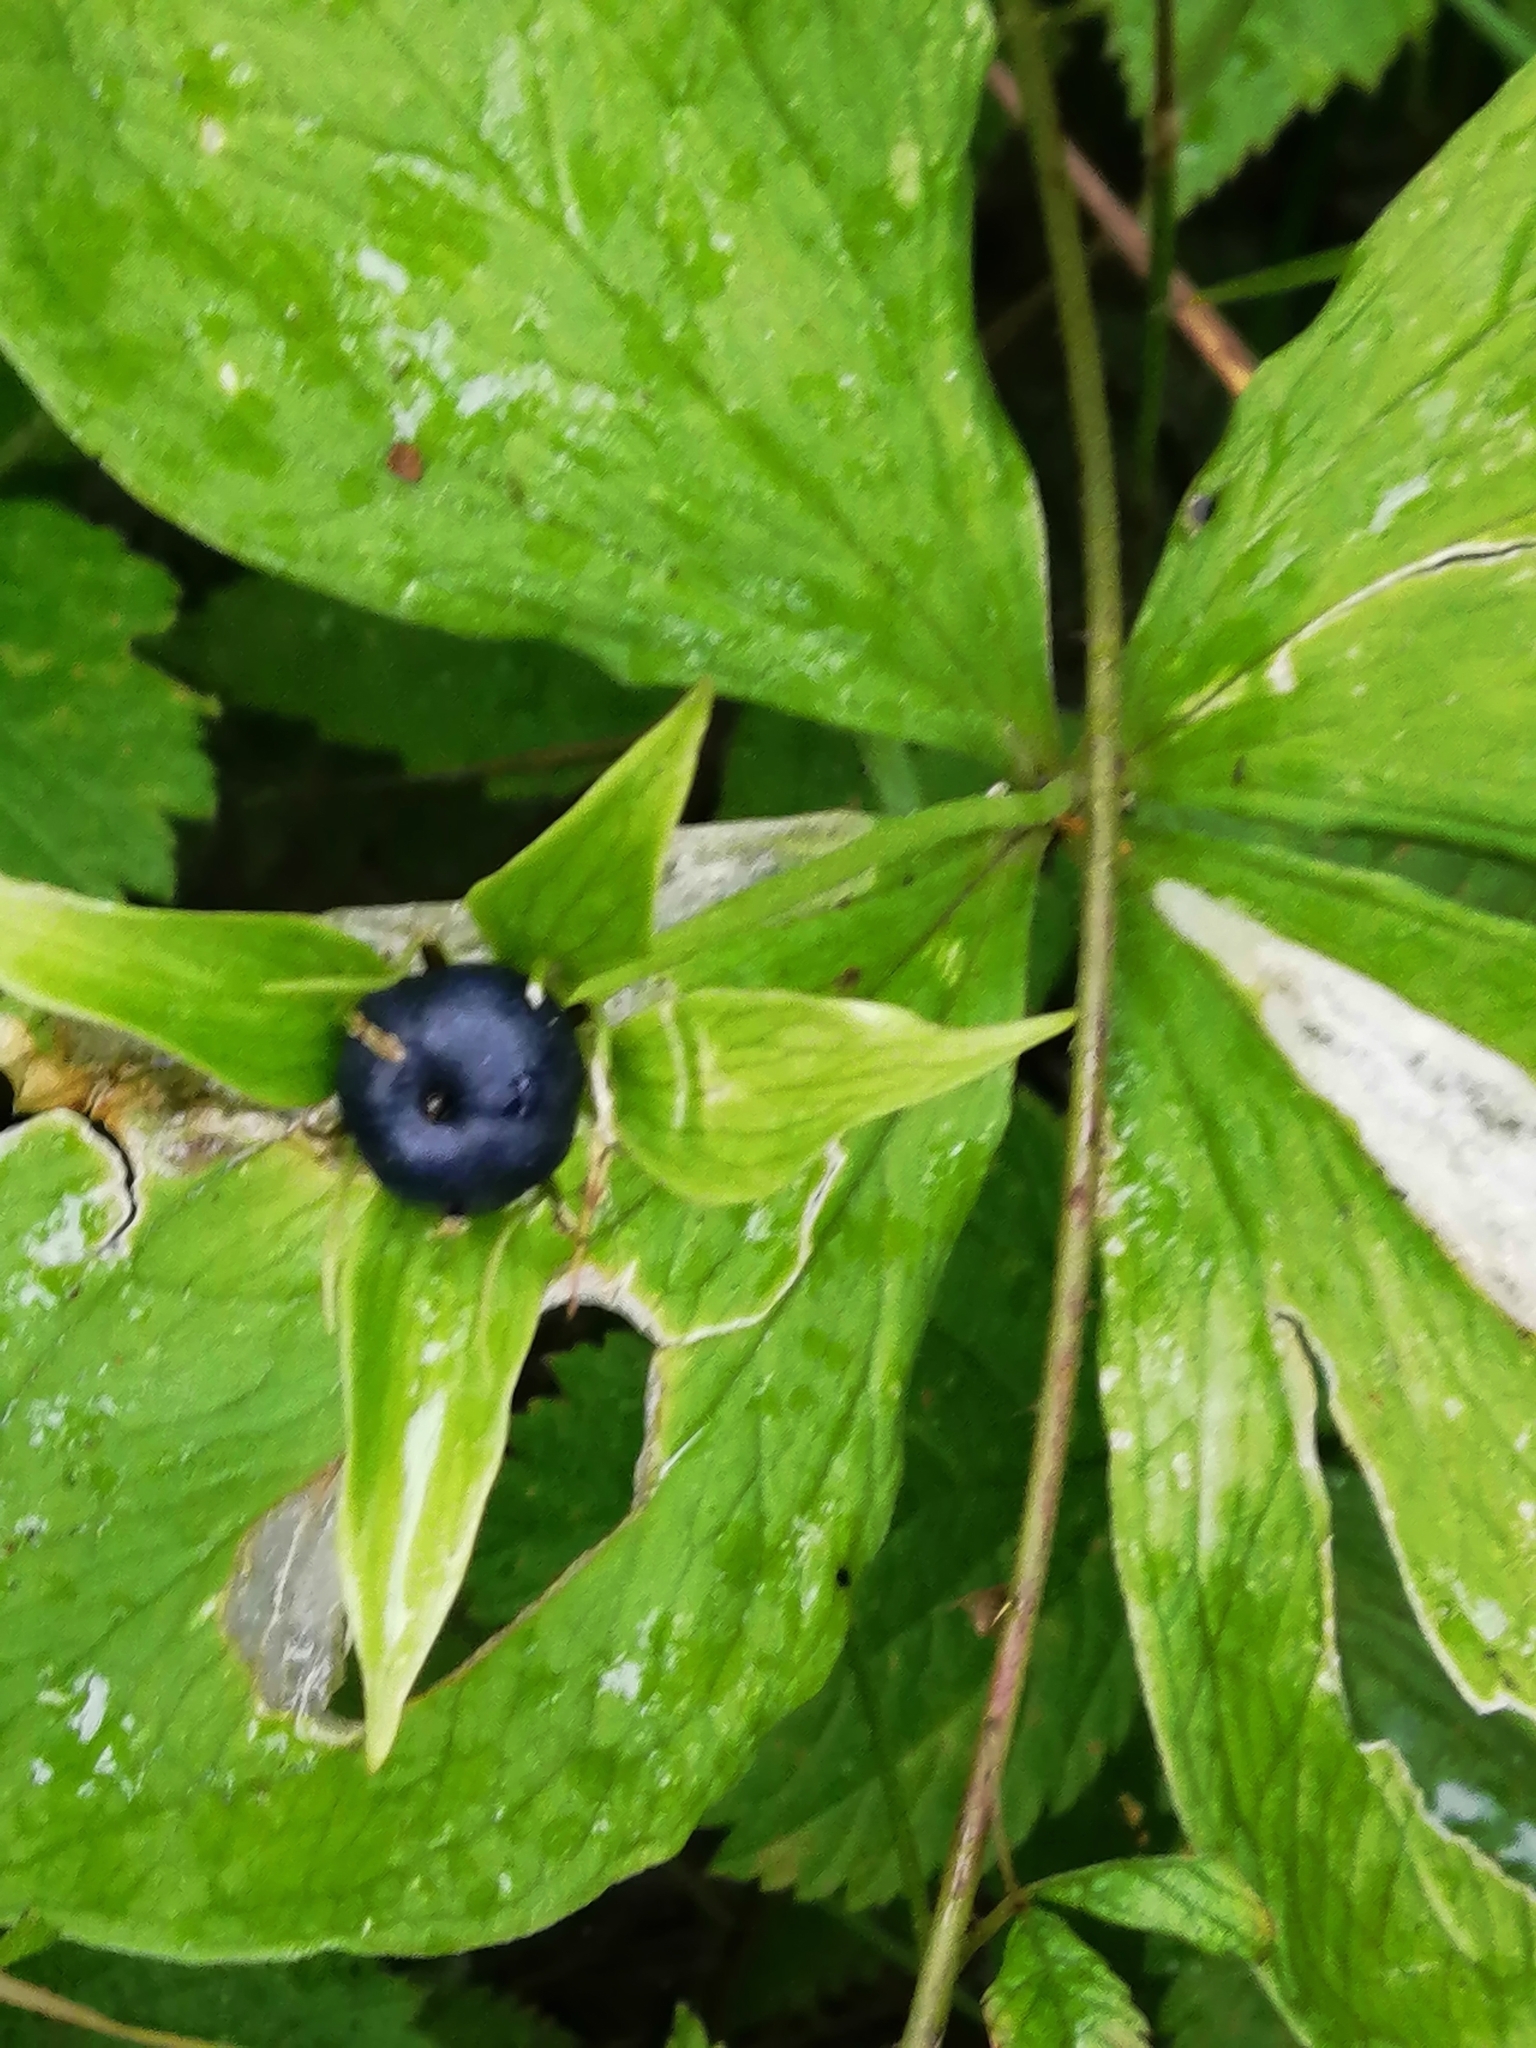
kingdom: Plantae
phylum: Tracheophyta
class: Liliopsida
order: Liliales
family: Melanthiaceae
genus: Paris
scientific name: Paris quadrifolia
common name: Herb-paris
